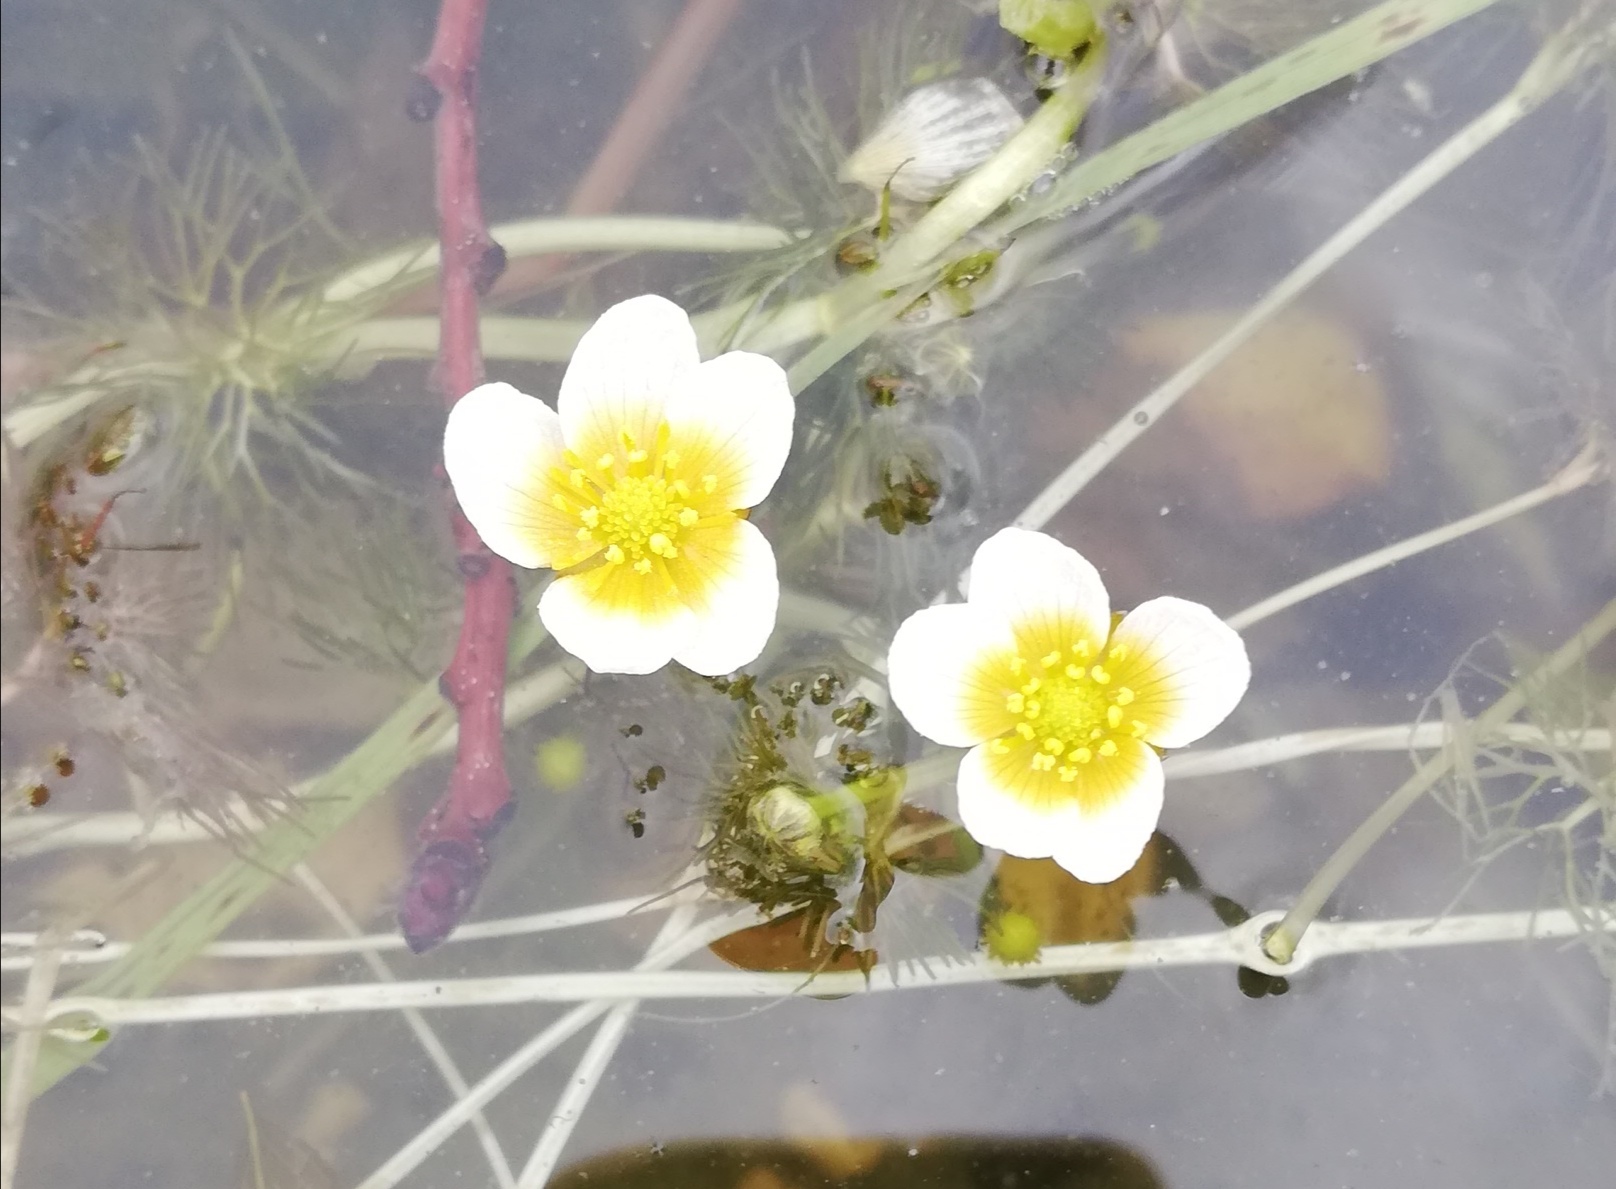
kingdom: Plantae
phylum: Tracheophyta
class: Magnoliopsida
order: Ranunculales
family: Ranunculaceae
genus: Ranunculus
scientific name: Ranunculus aquatilis
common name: Common water-crowfoot
